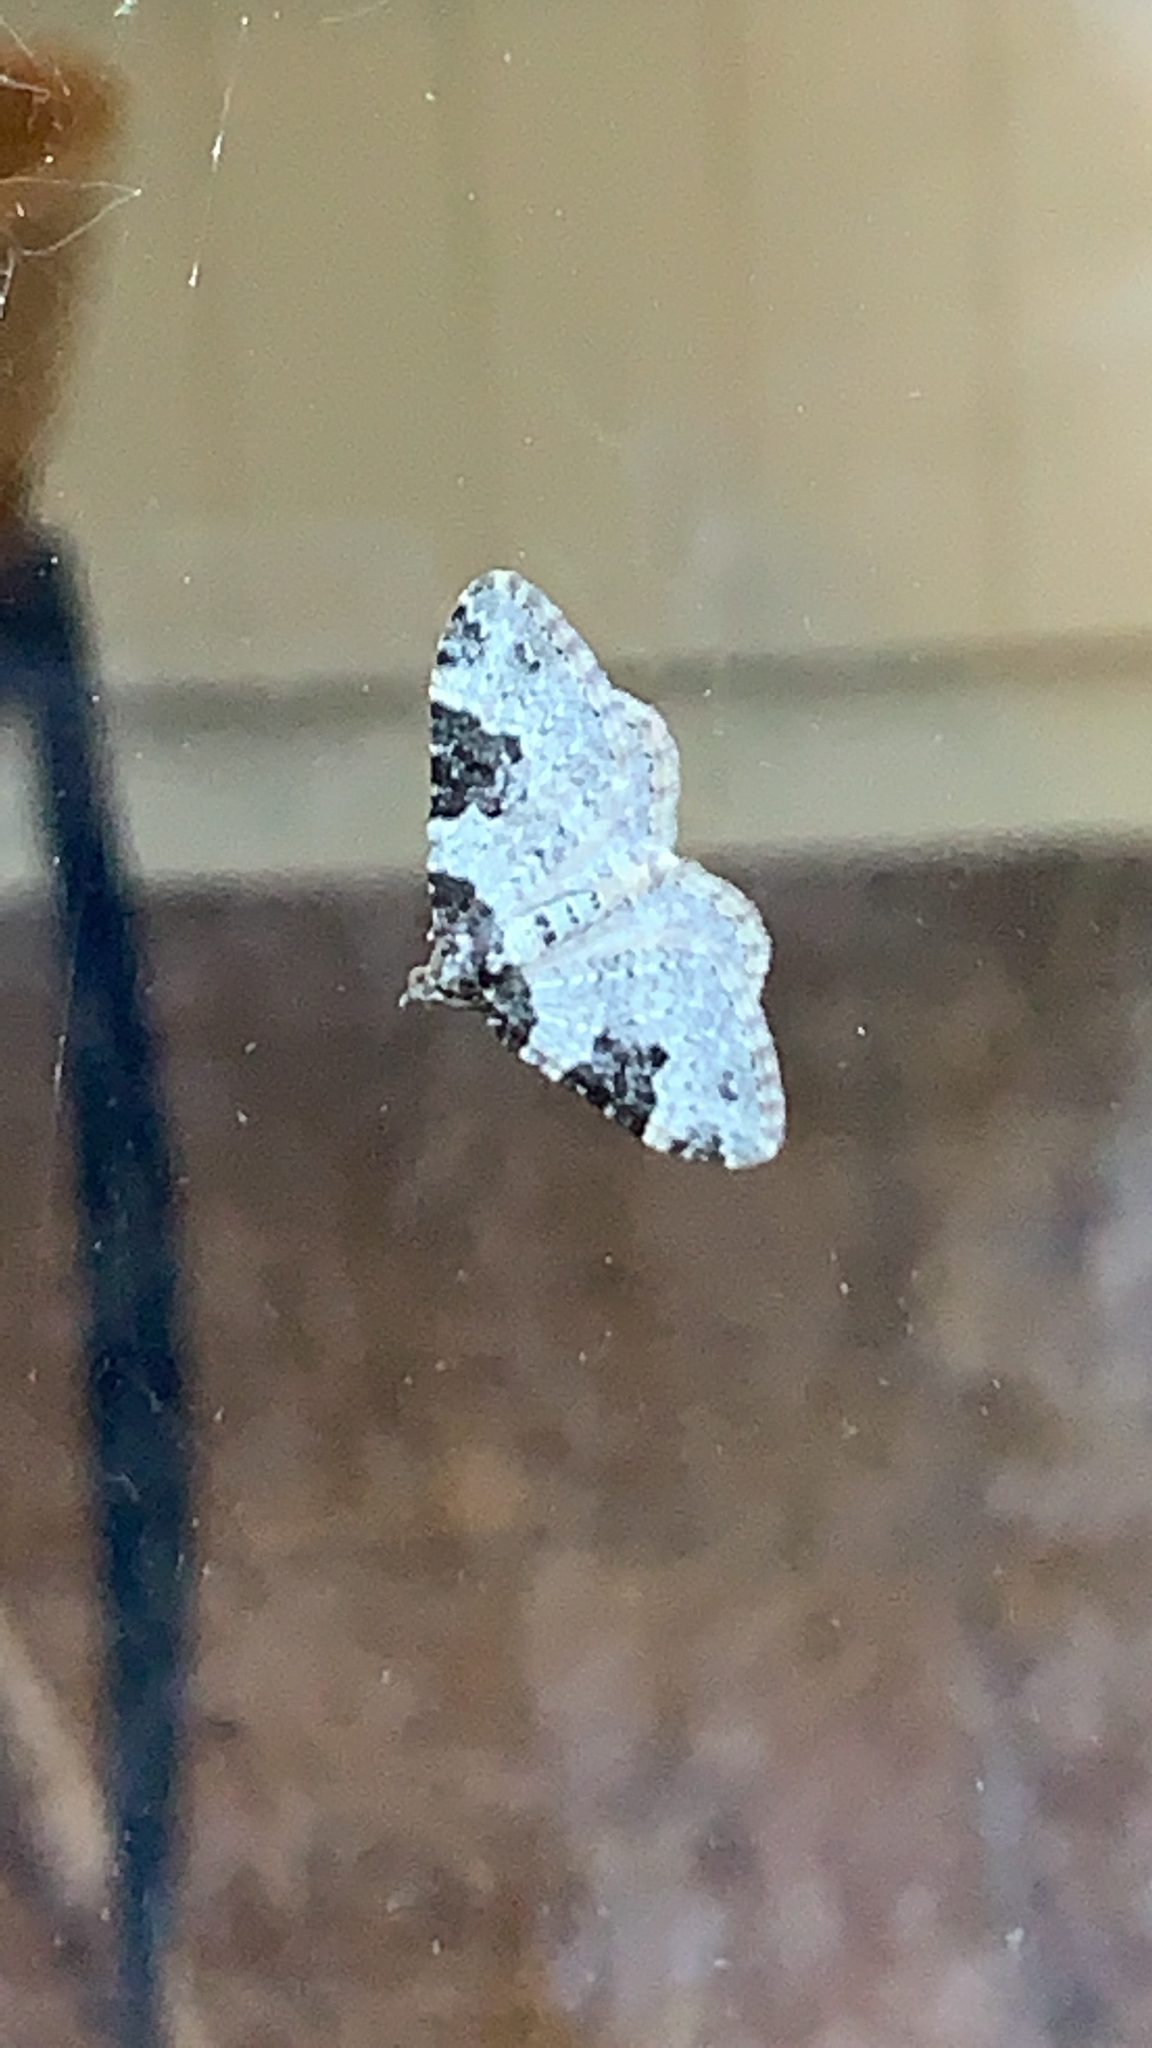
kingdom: Animalia
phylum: Arthropoda
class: Insecta
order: Lepidoptera
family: Geometridae
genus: Xanthorhoe
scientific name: Xanthorhoe fluctuata
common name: Garden carpet
